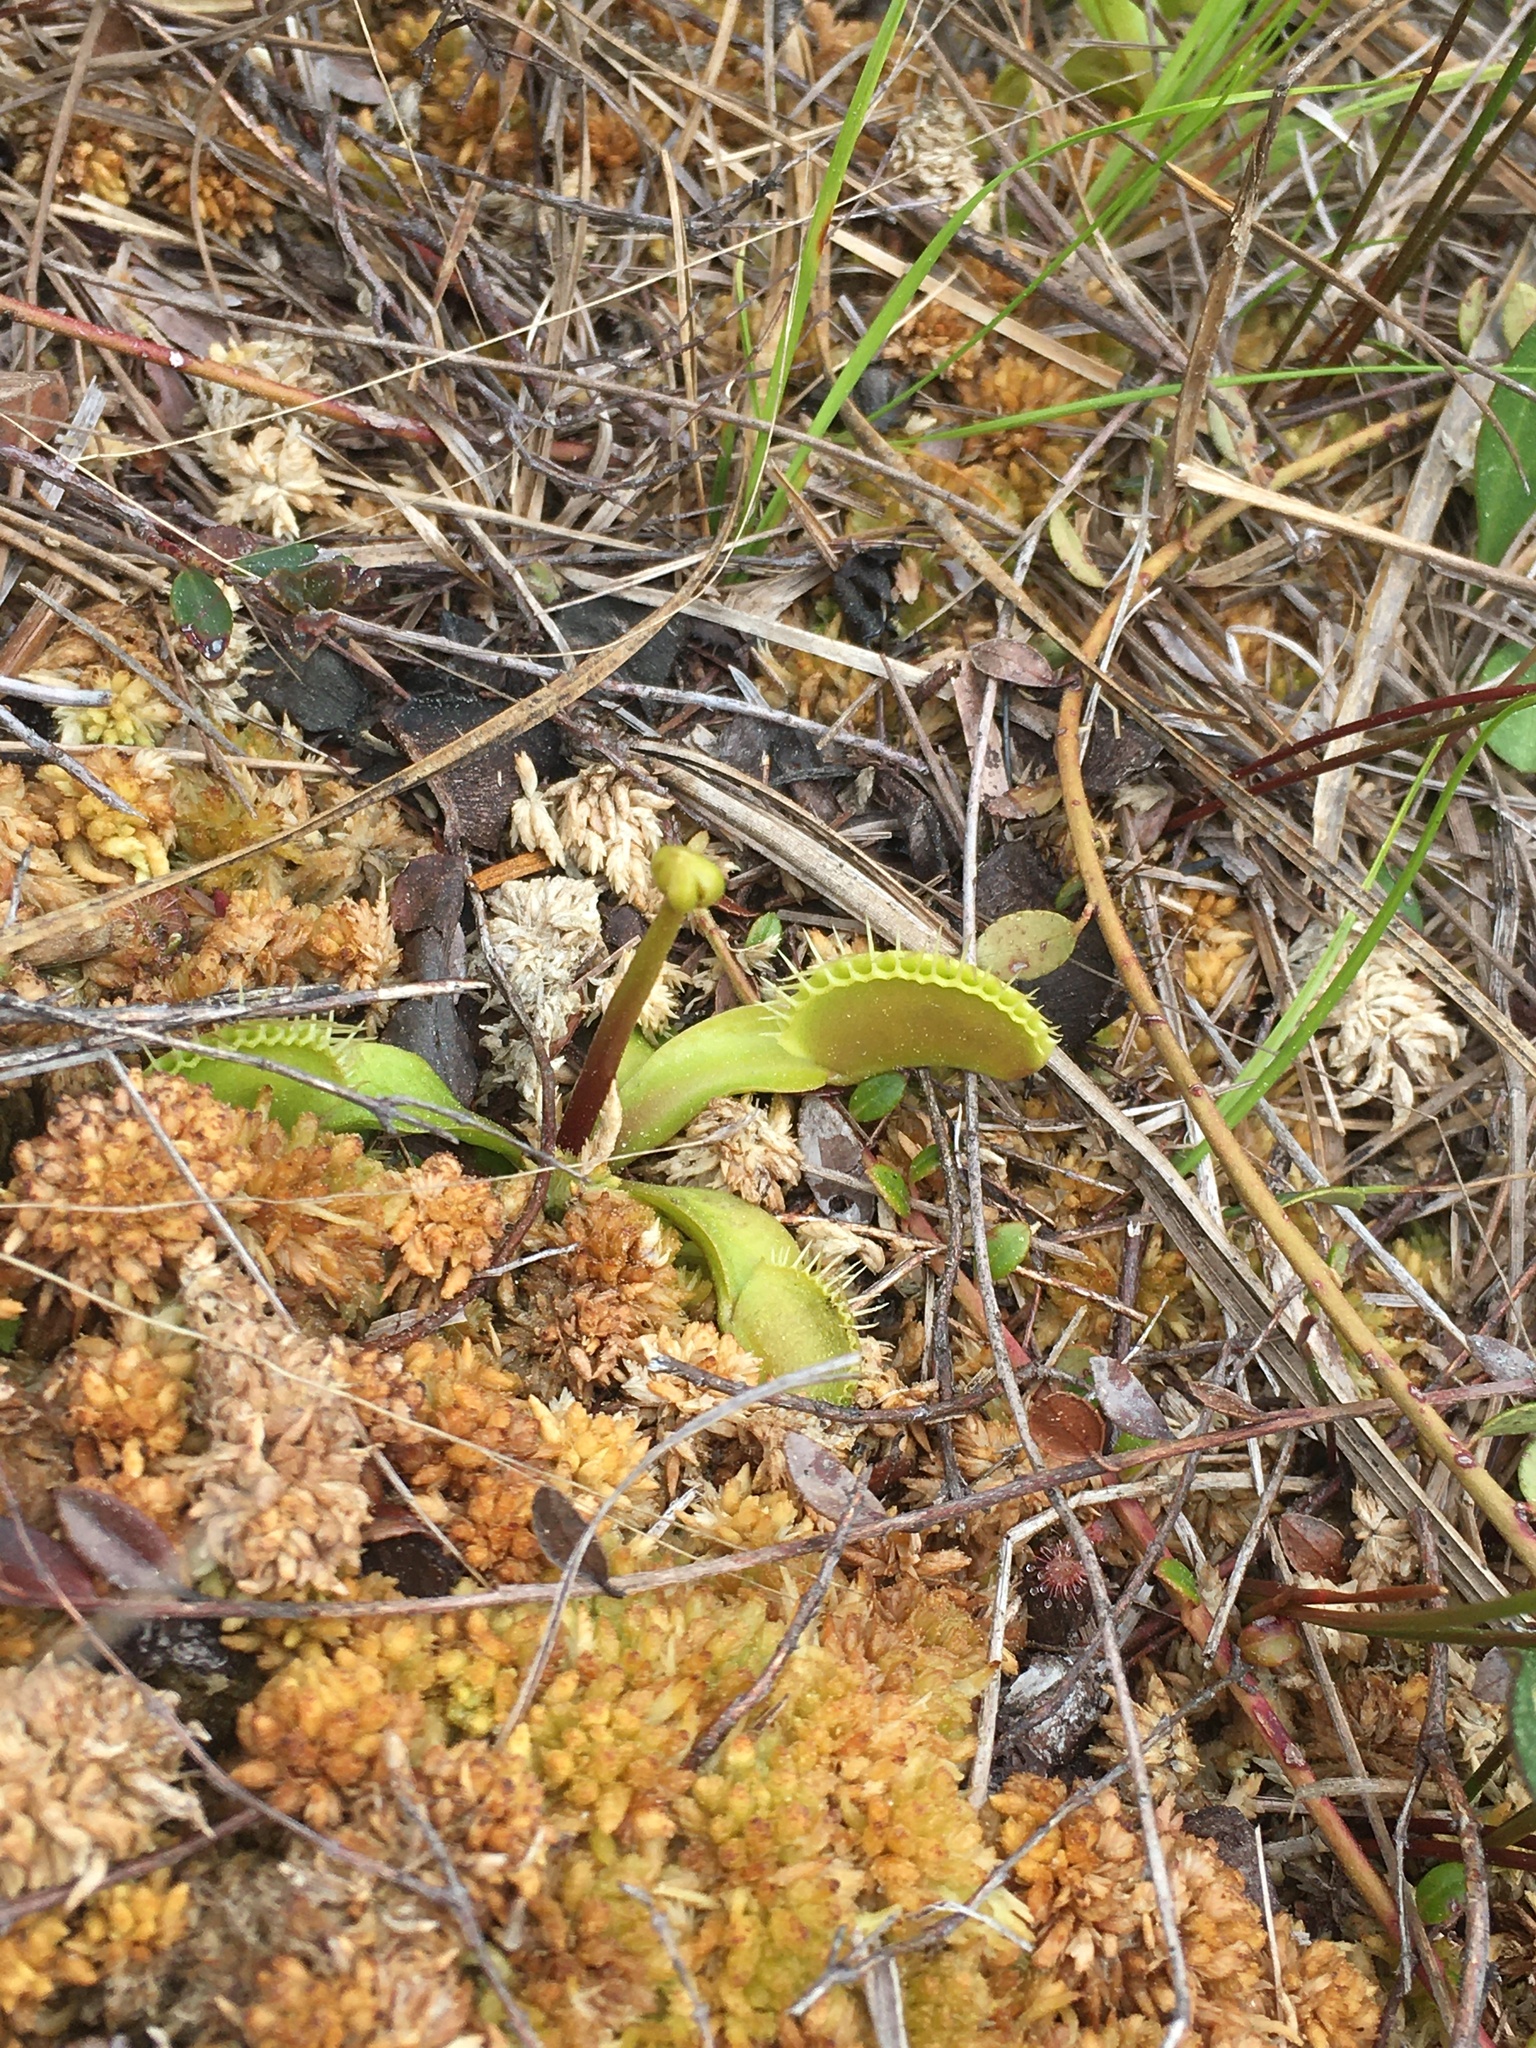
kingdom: Plantae
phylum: Tracheophyta
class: Magnoliopsida
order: Caryophyllales
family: Droseraceae
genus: Dionaea
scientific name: Dionaea muscipula
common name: Venus flytrap
